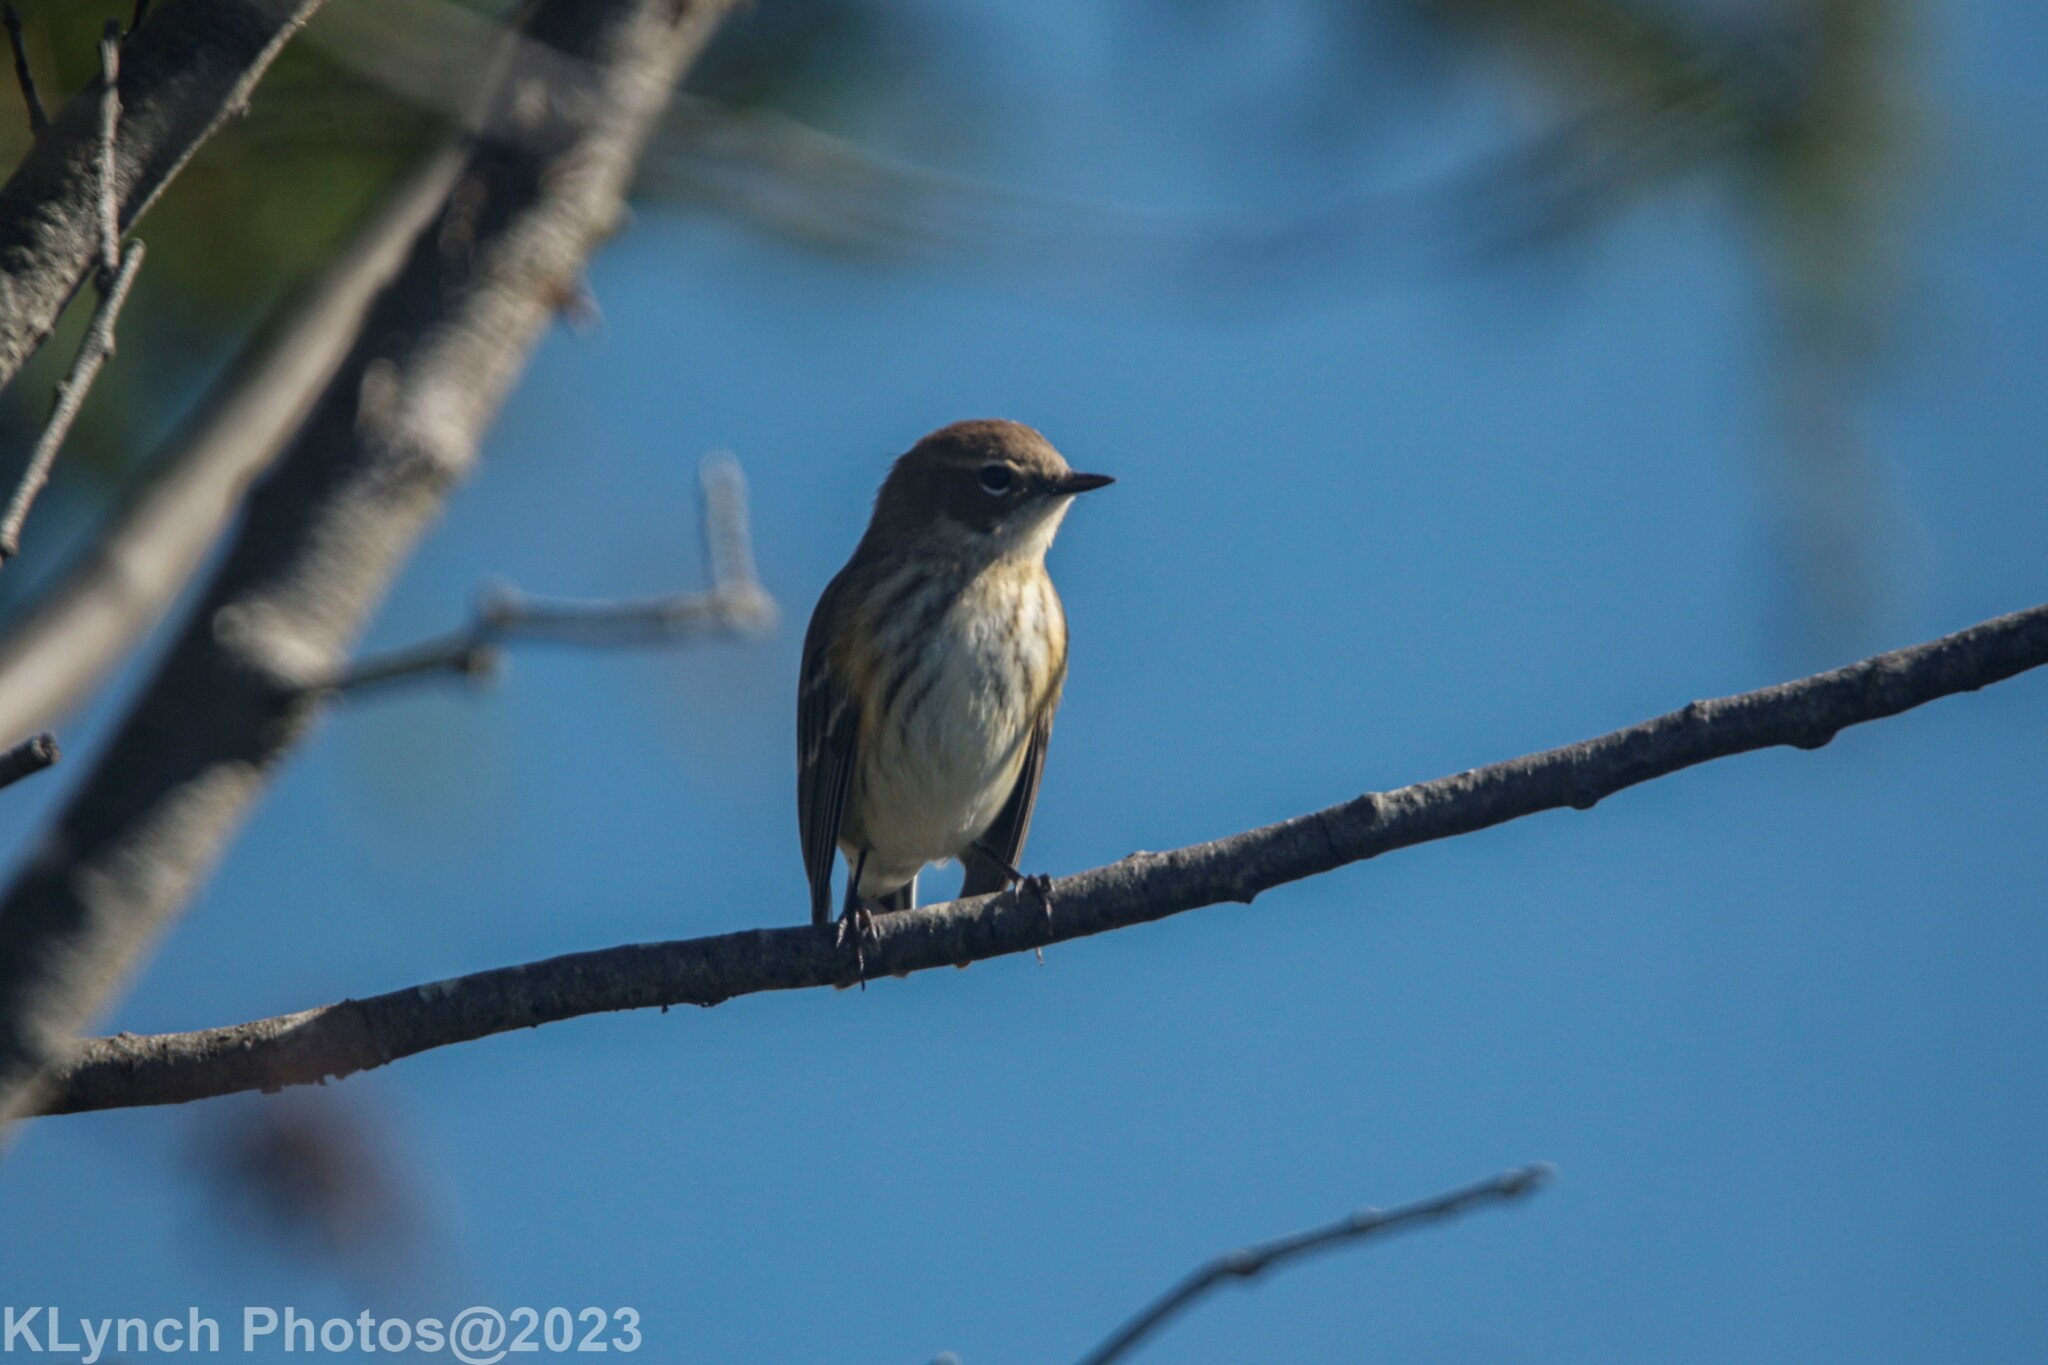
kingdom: Animalia
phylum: Chordata
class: Aves
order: Passeriformes
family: Parulidae
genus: Setophaga
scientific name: Setophaga coronata
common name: Myrtle warbler
